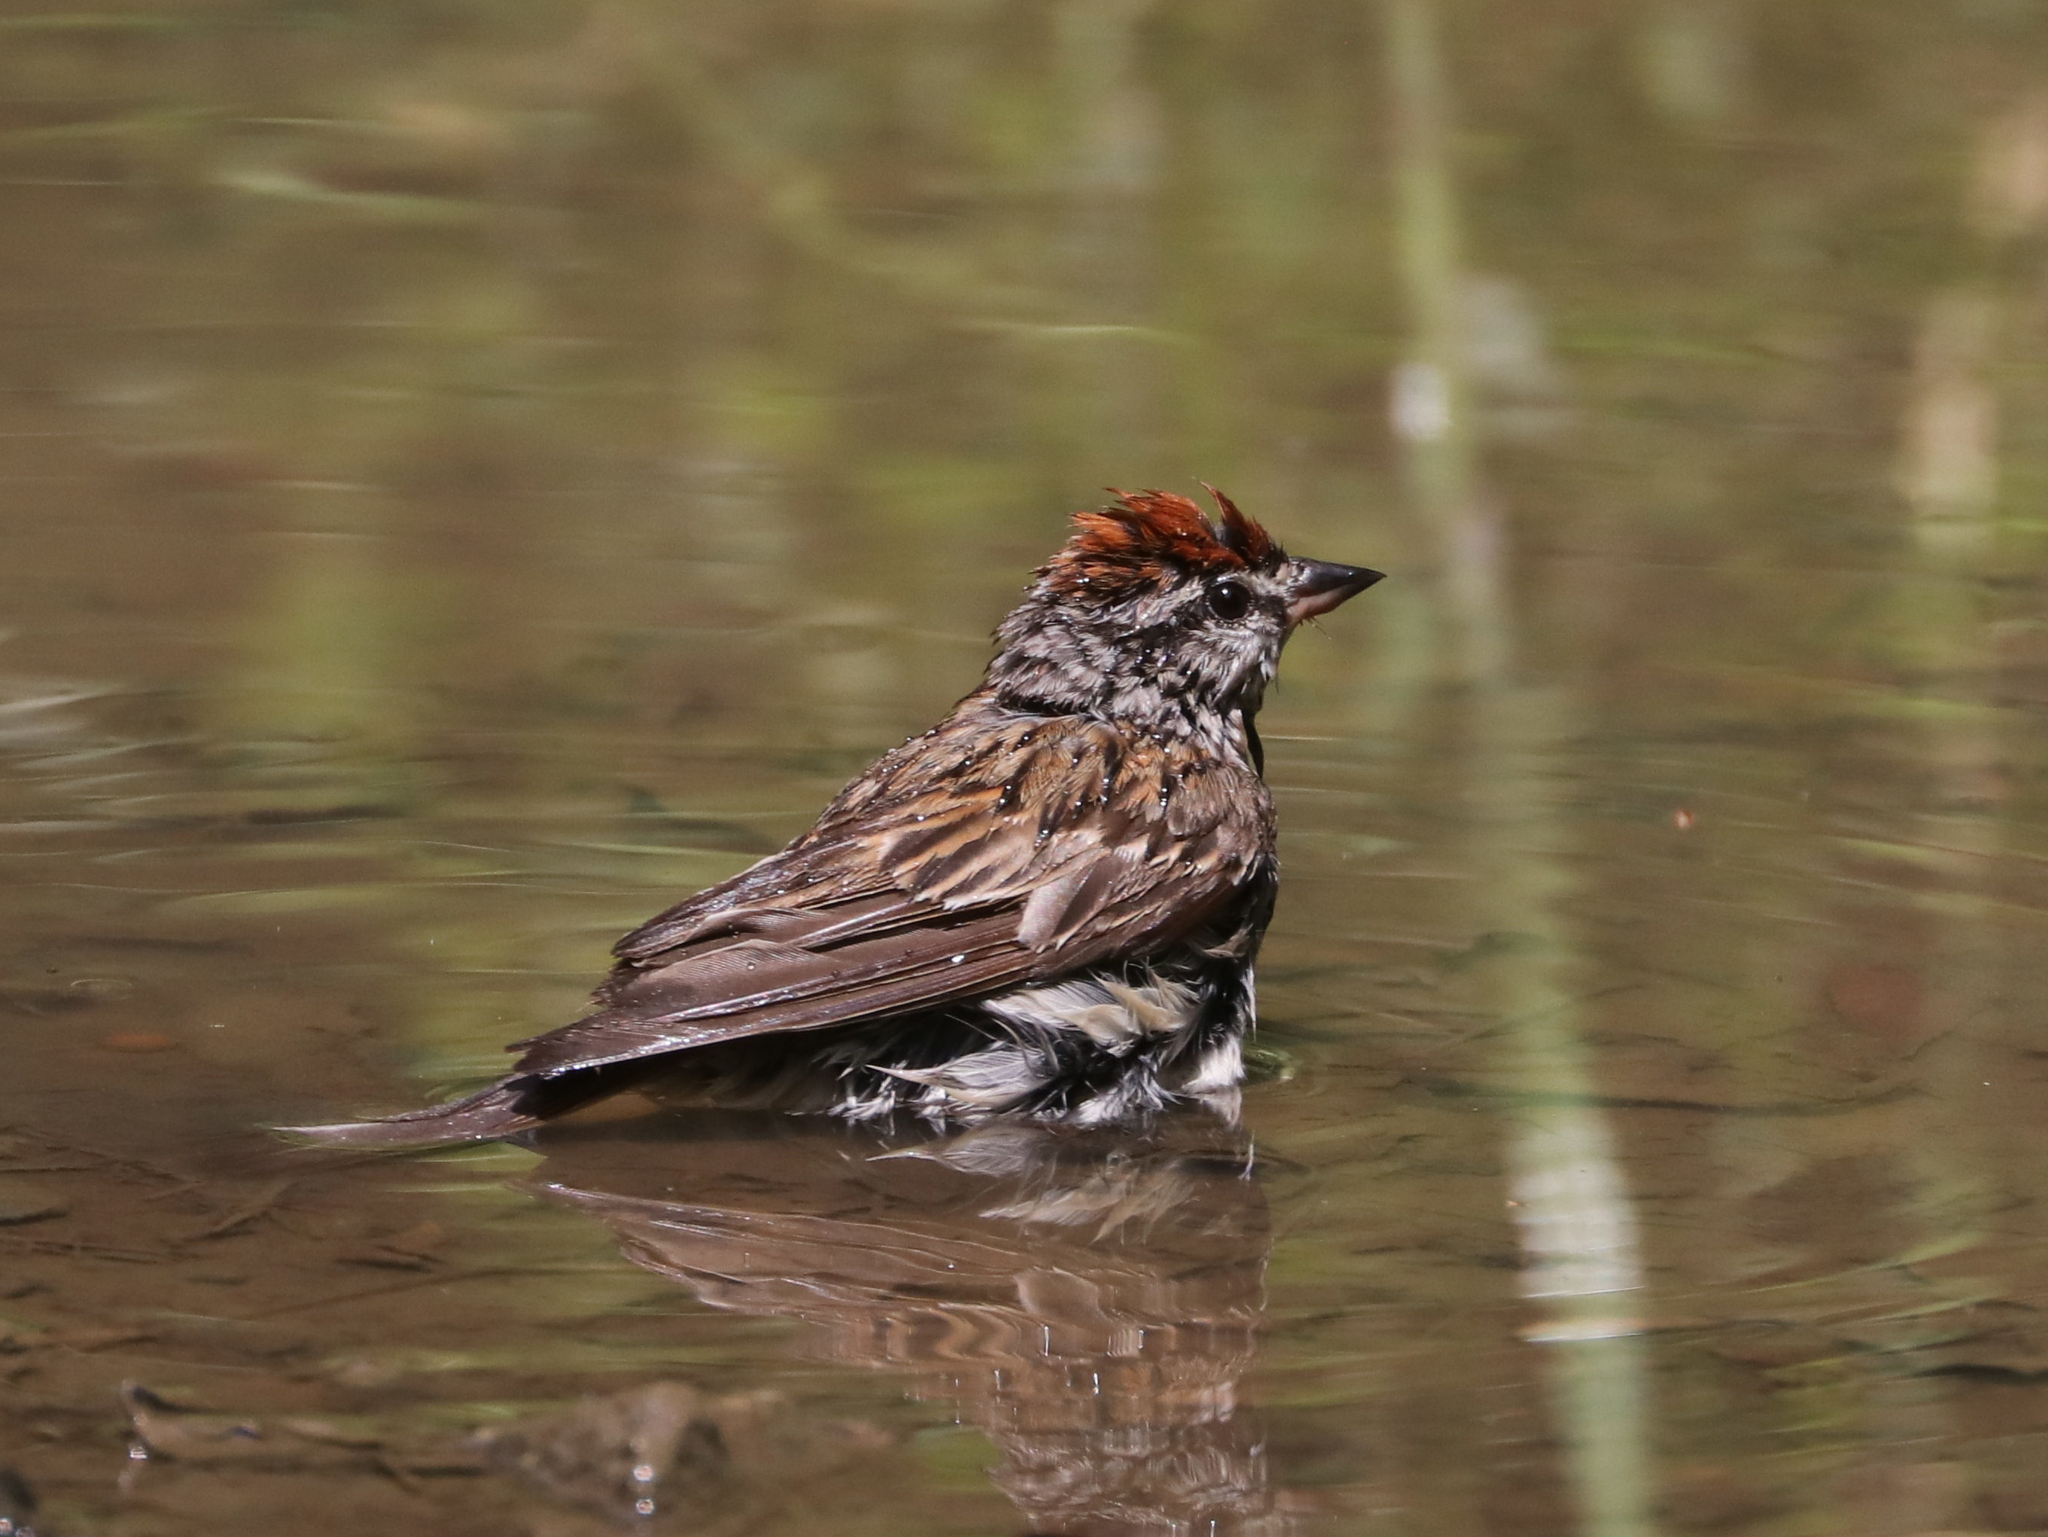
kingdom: Animalia
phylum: Chordata
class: Aves
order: Passeriformes
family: Passerellidae
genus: Spizella
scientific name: Spizella passerina
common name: Chipping sparrow
